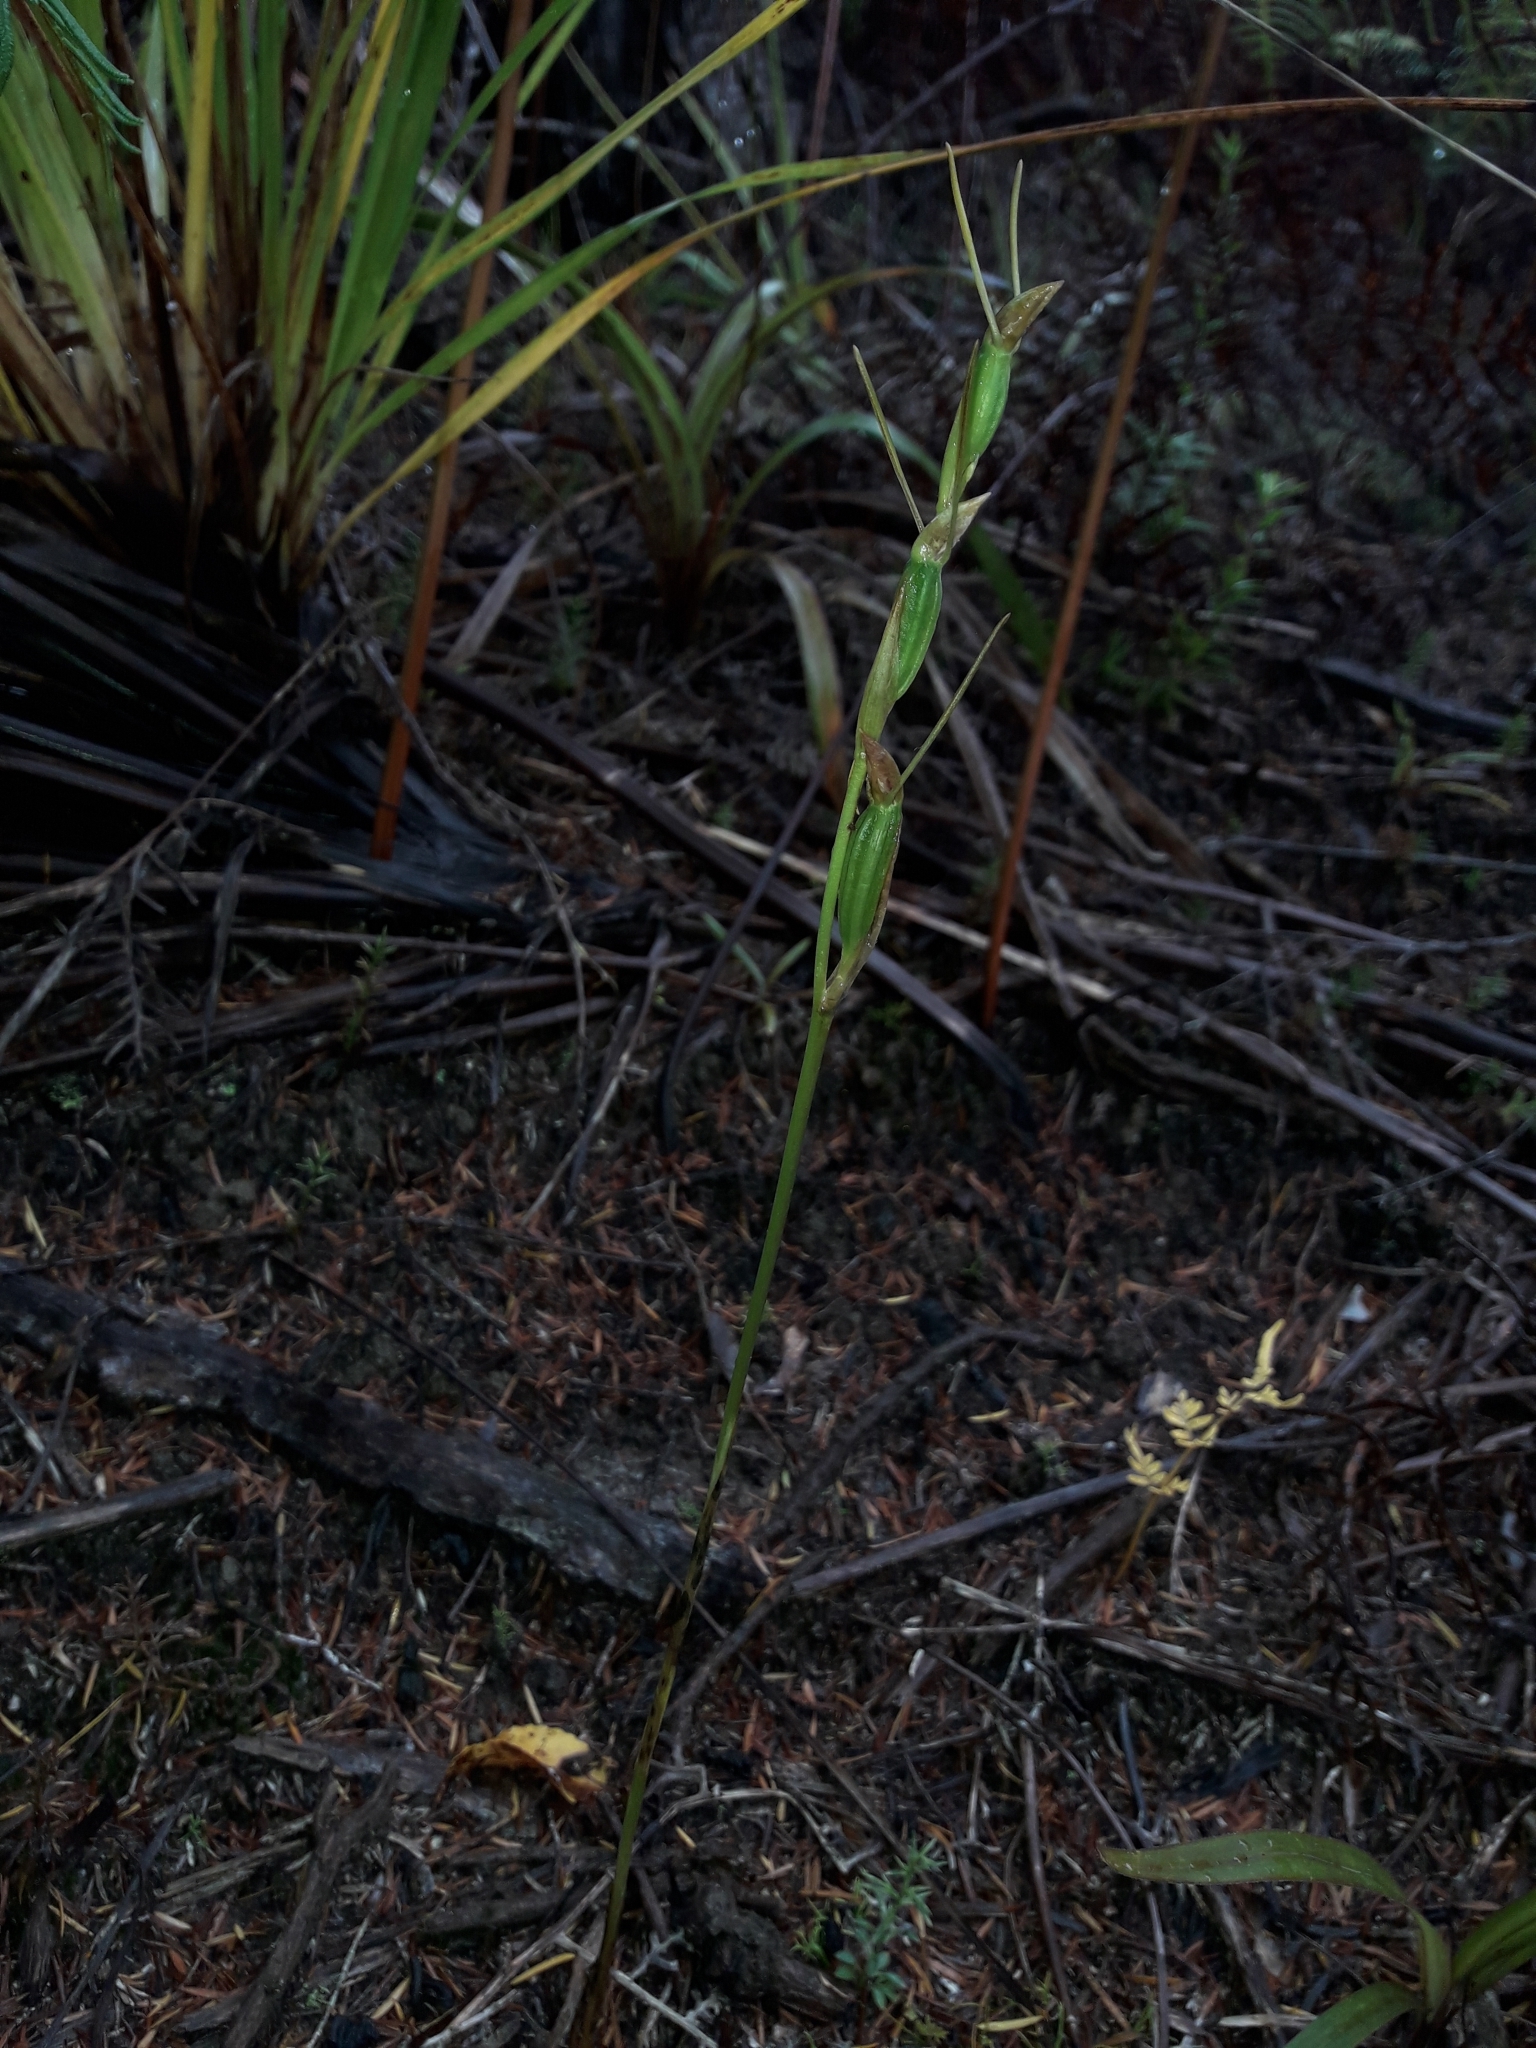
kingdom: Plantae
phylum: Tracheophyta
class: Liliopsida
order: Asparagales
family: Orchidaceae
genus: Orthoceras
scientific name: Orthoceras novae-zeelandiae
